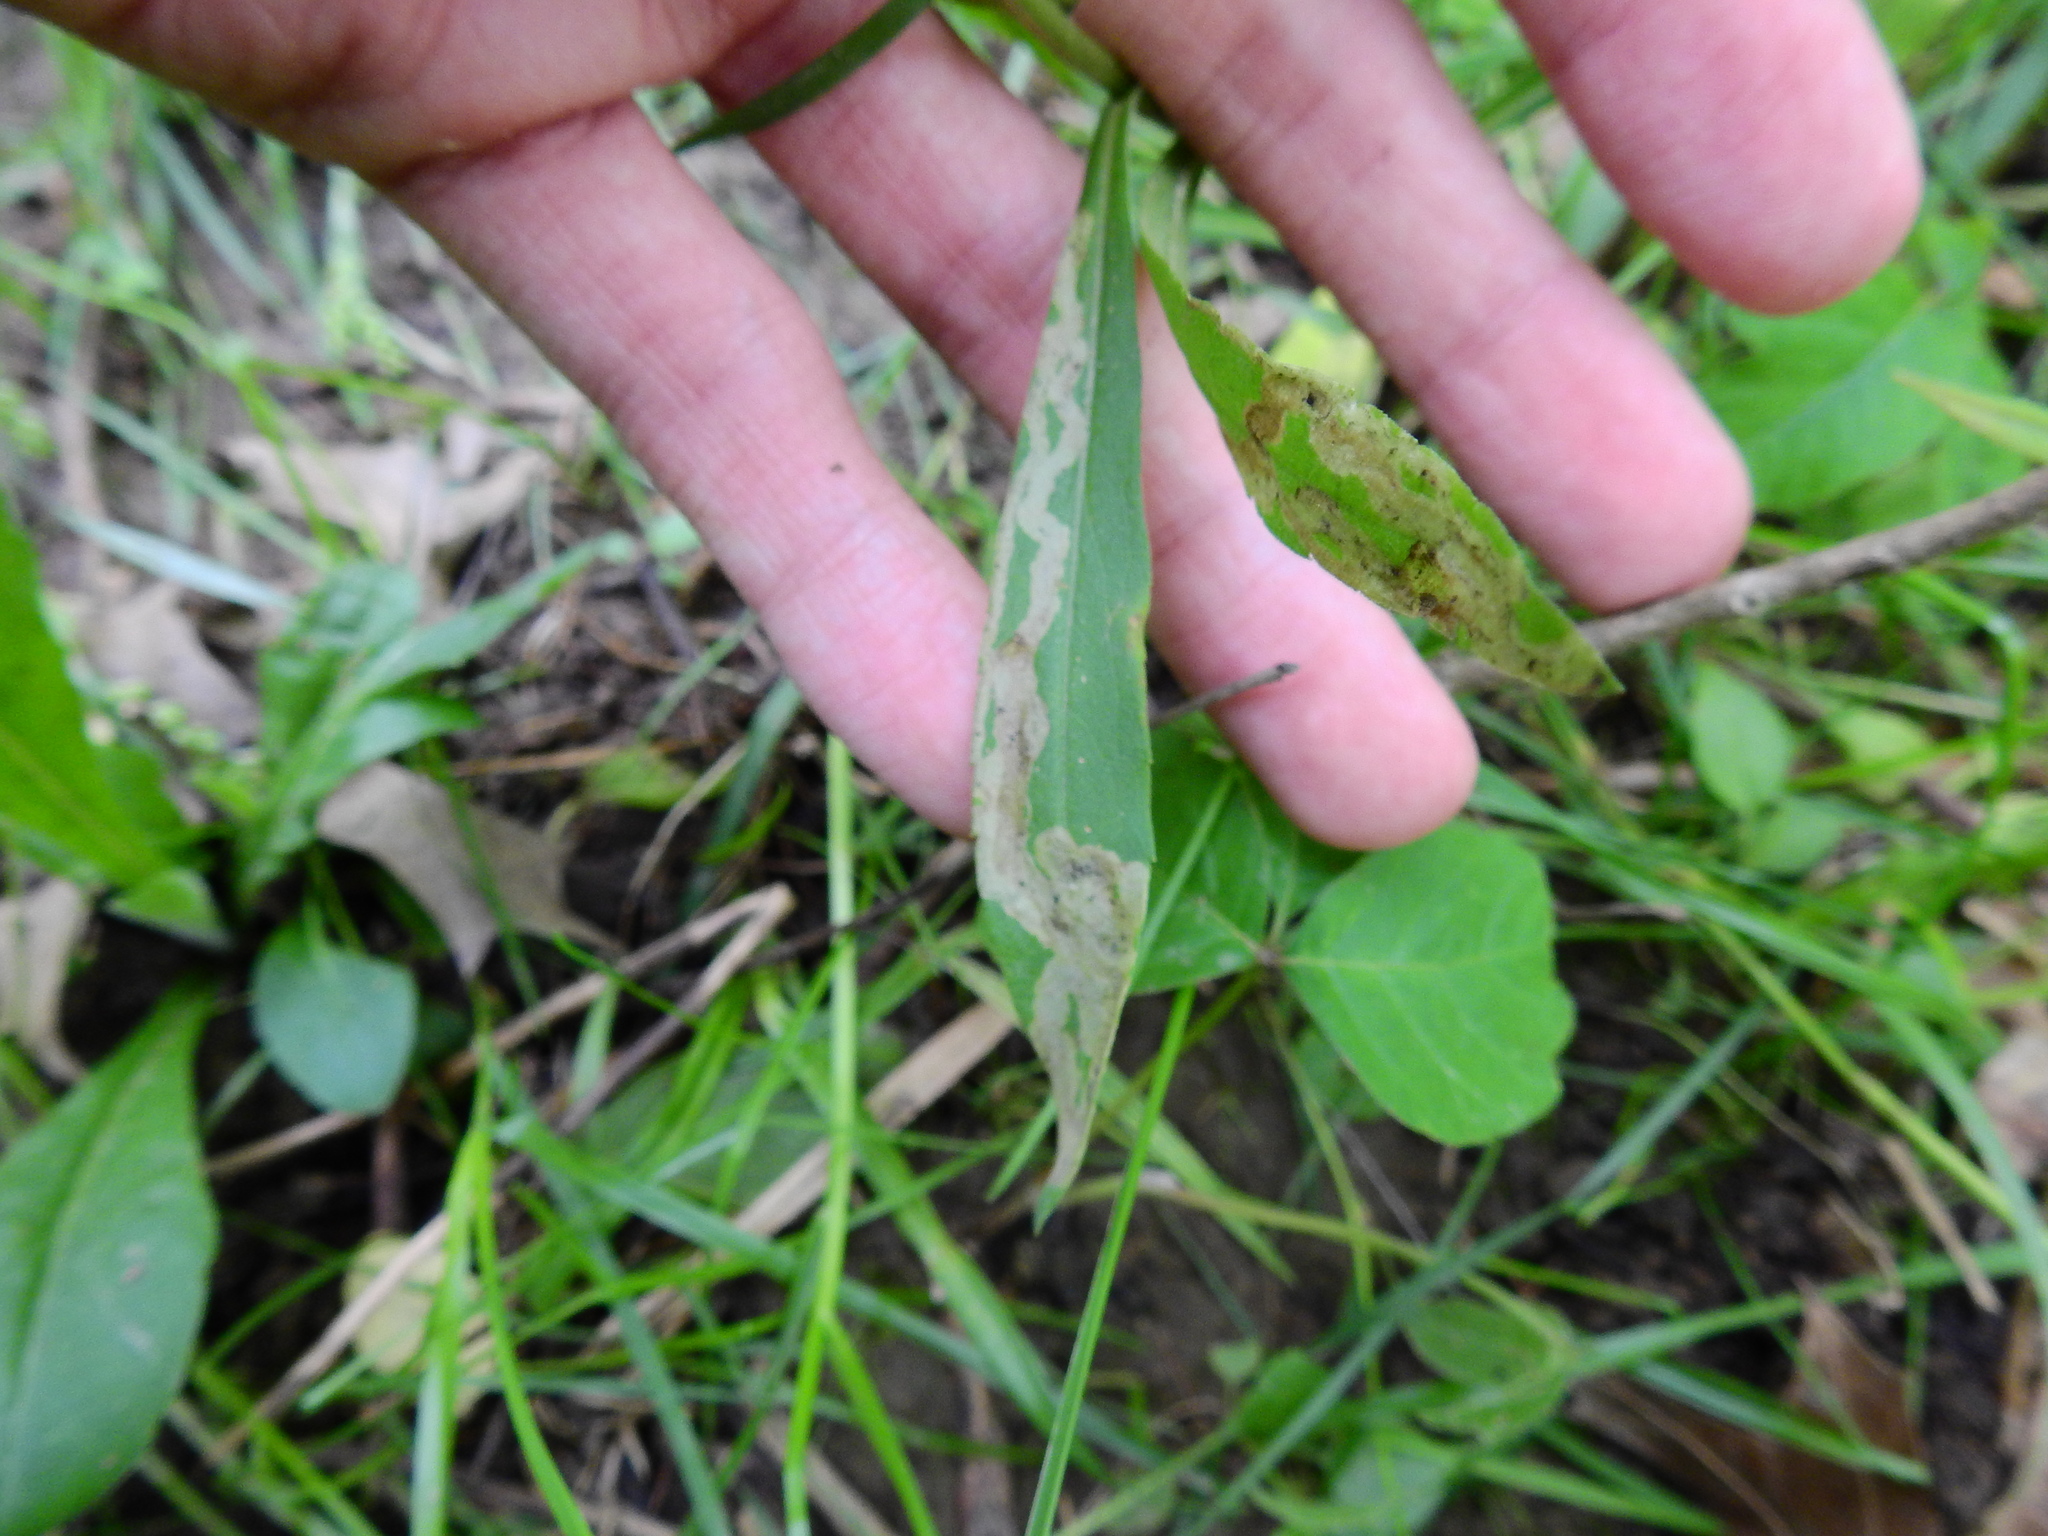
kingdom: Animalia
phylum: Arthropoda
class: Insecta
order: Diptera
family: Agromyzidae
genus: Phytomyza
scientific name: Phytomyza solidaginophaga
